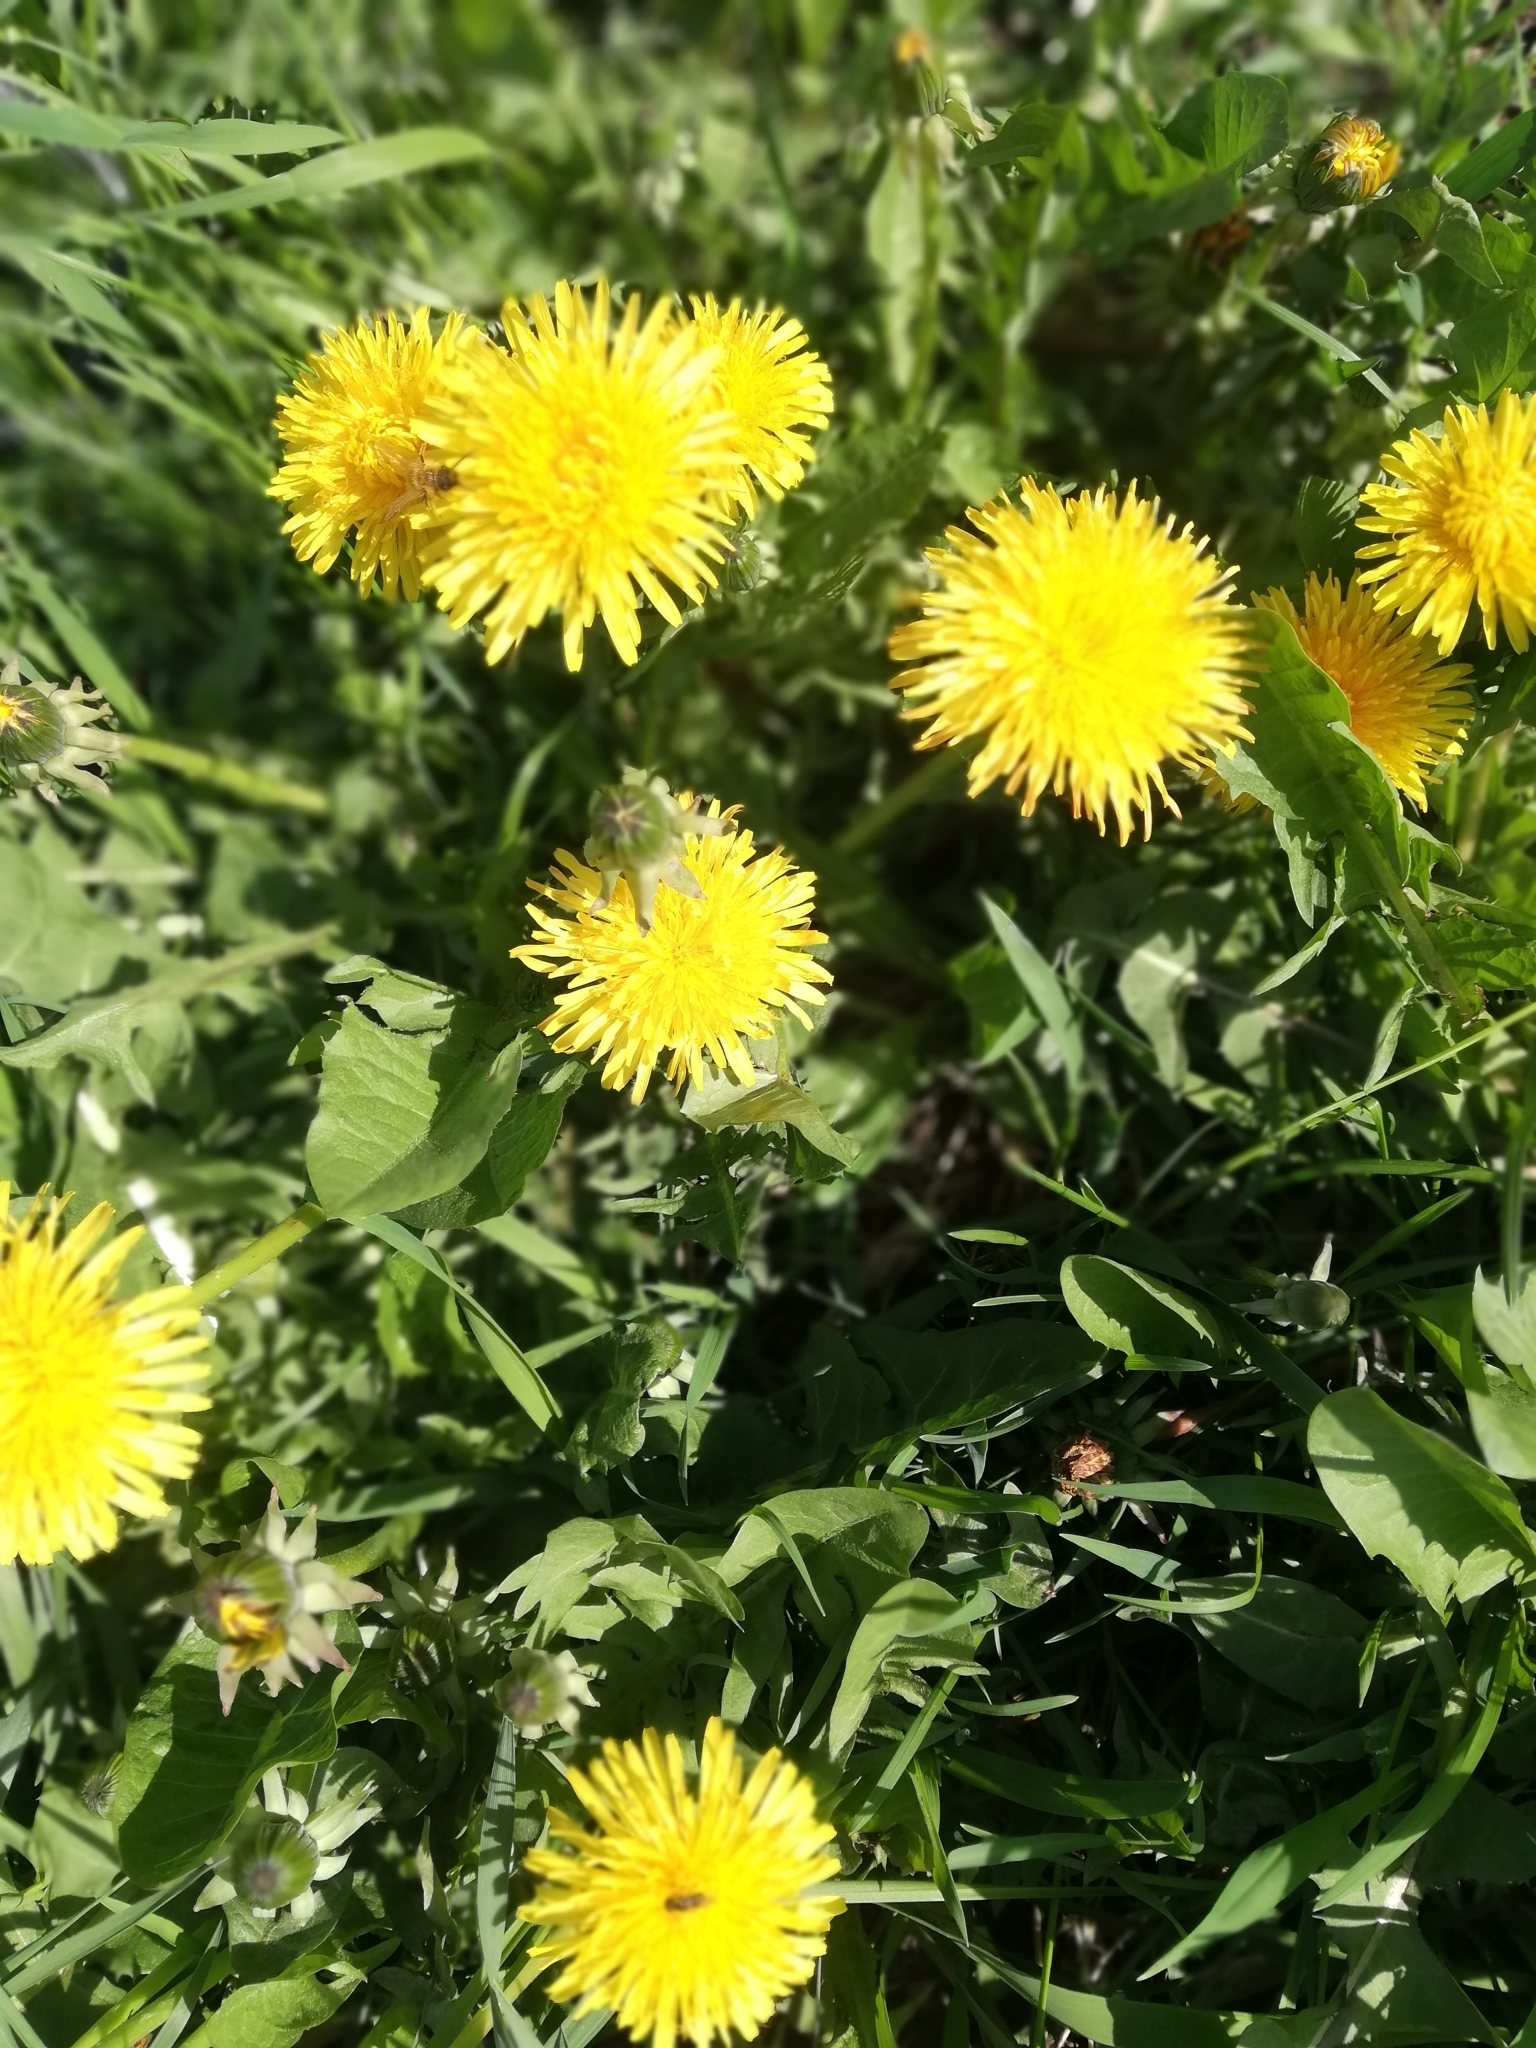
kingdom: Plantae
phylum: Tracheophyta
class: Magnoliopsida
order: Asterales
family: Asteraceae
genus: Taraxacum
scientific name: Taraxacum officinale
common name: Common dandelion
